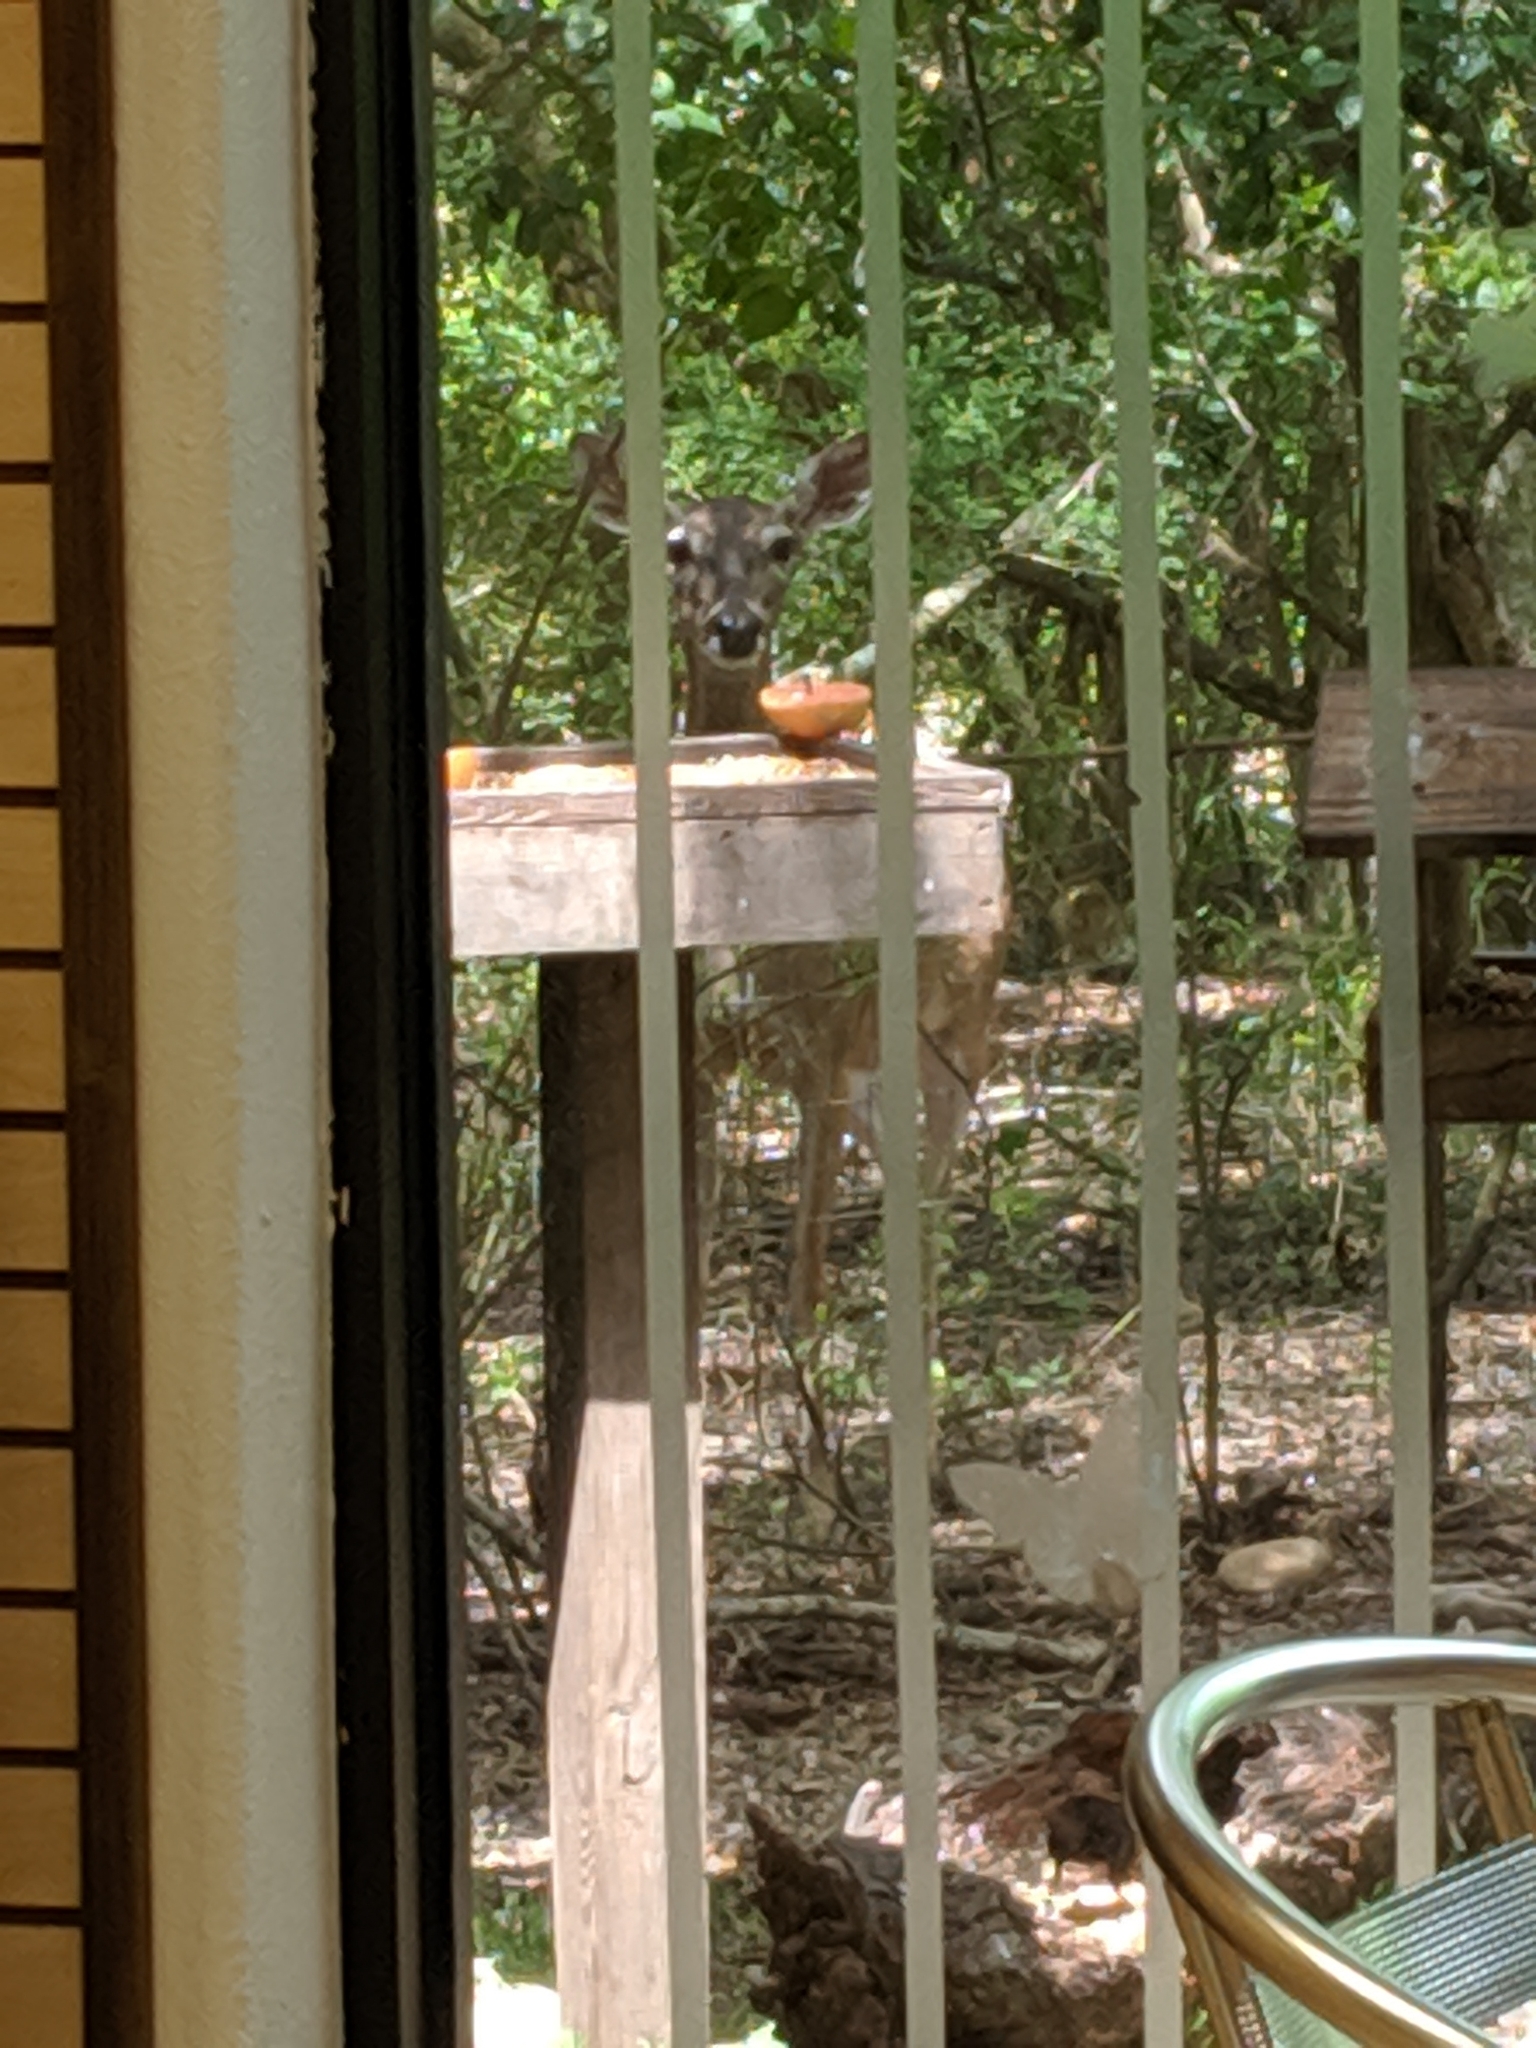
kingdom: Animalia
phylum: Chordata
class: Mammalia
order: Artiodactyla
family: Cervidae
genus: Odocoileus
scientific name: Odocoileus virginianus
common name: White-tailed deer
